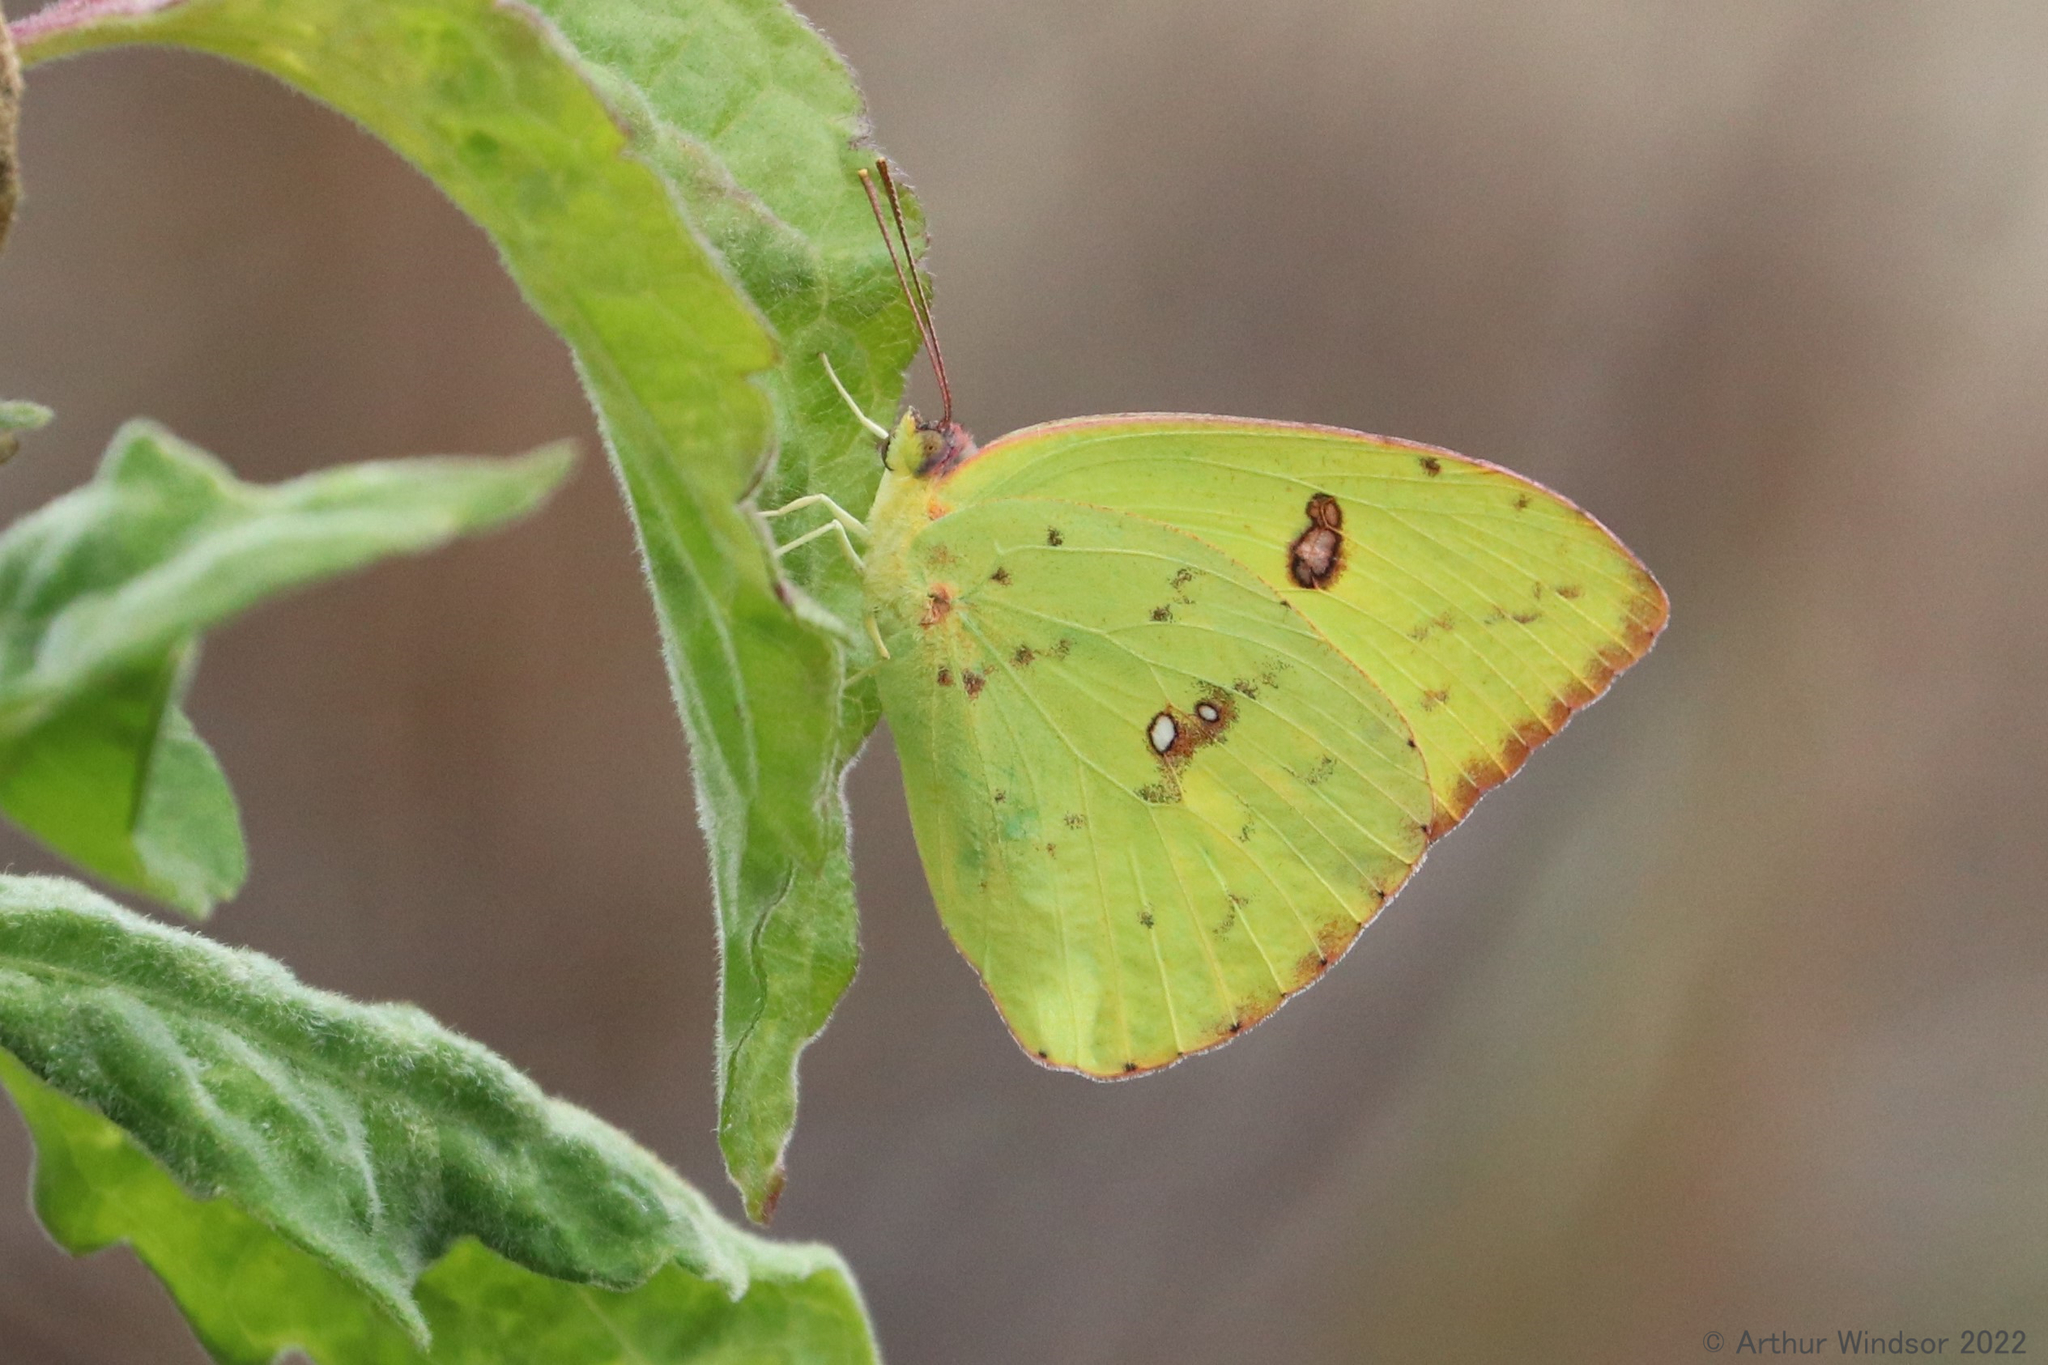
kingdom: Animalia
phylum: Arthropoda
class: Insecta
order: Lepidoptera
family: Pieridae
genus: Phoebis
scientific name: Phoebis sennae
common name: Cloudless sulphur
